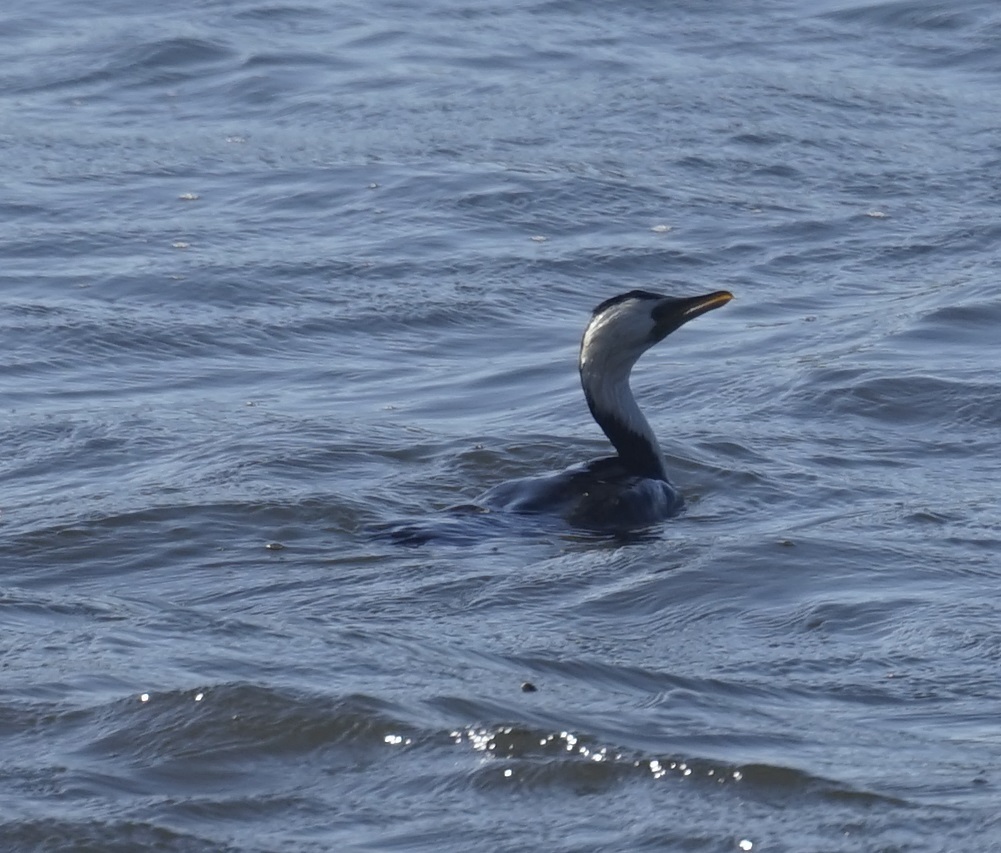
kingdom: Animalia
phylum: Chordata
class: Aves
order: Suliformes
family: Phalacrocoracidae
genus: Microcarbo
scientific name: Microcarbo melanoleucos
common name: Little pied cormorant
